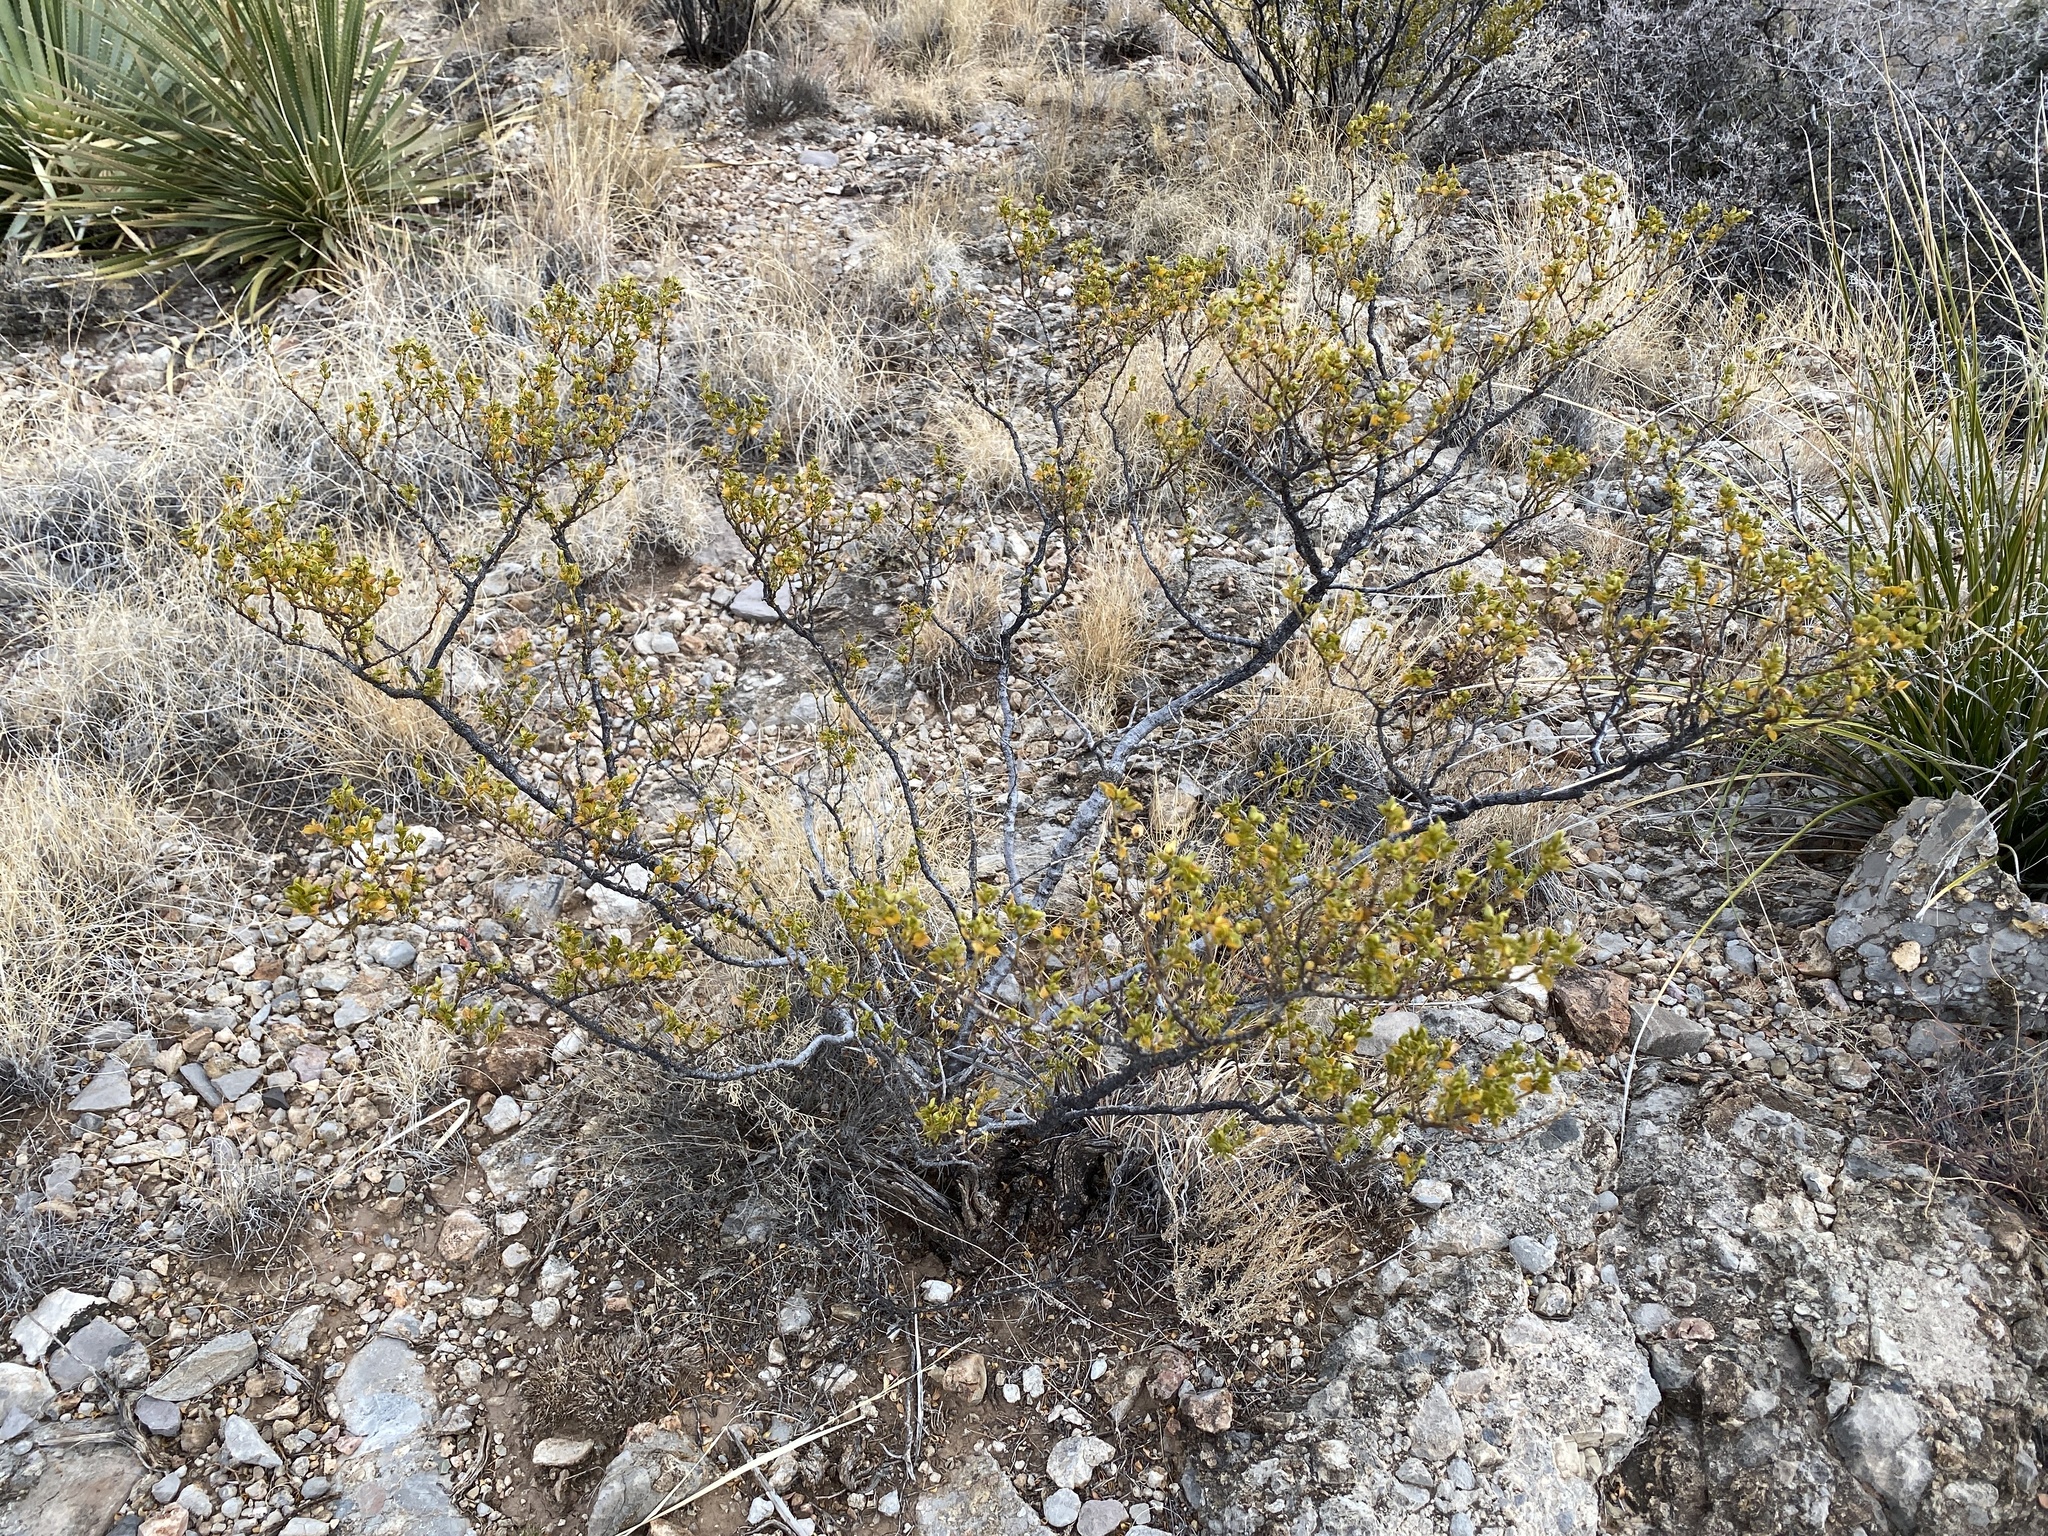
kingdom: Plantae
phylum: Tracheophyta
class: Magnoliopsida
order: Zygophyllales
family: Zygophyllaceae
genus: Larrea
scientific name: Larrea tridentata
